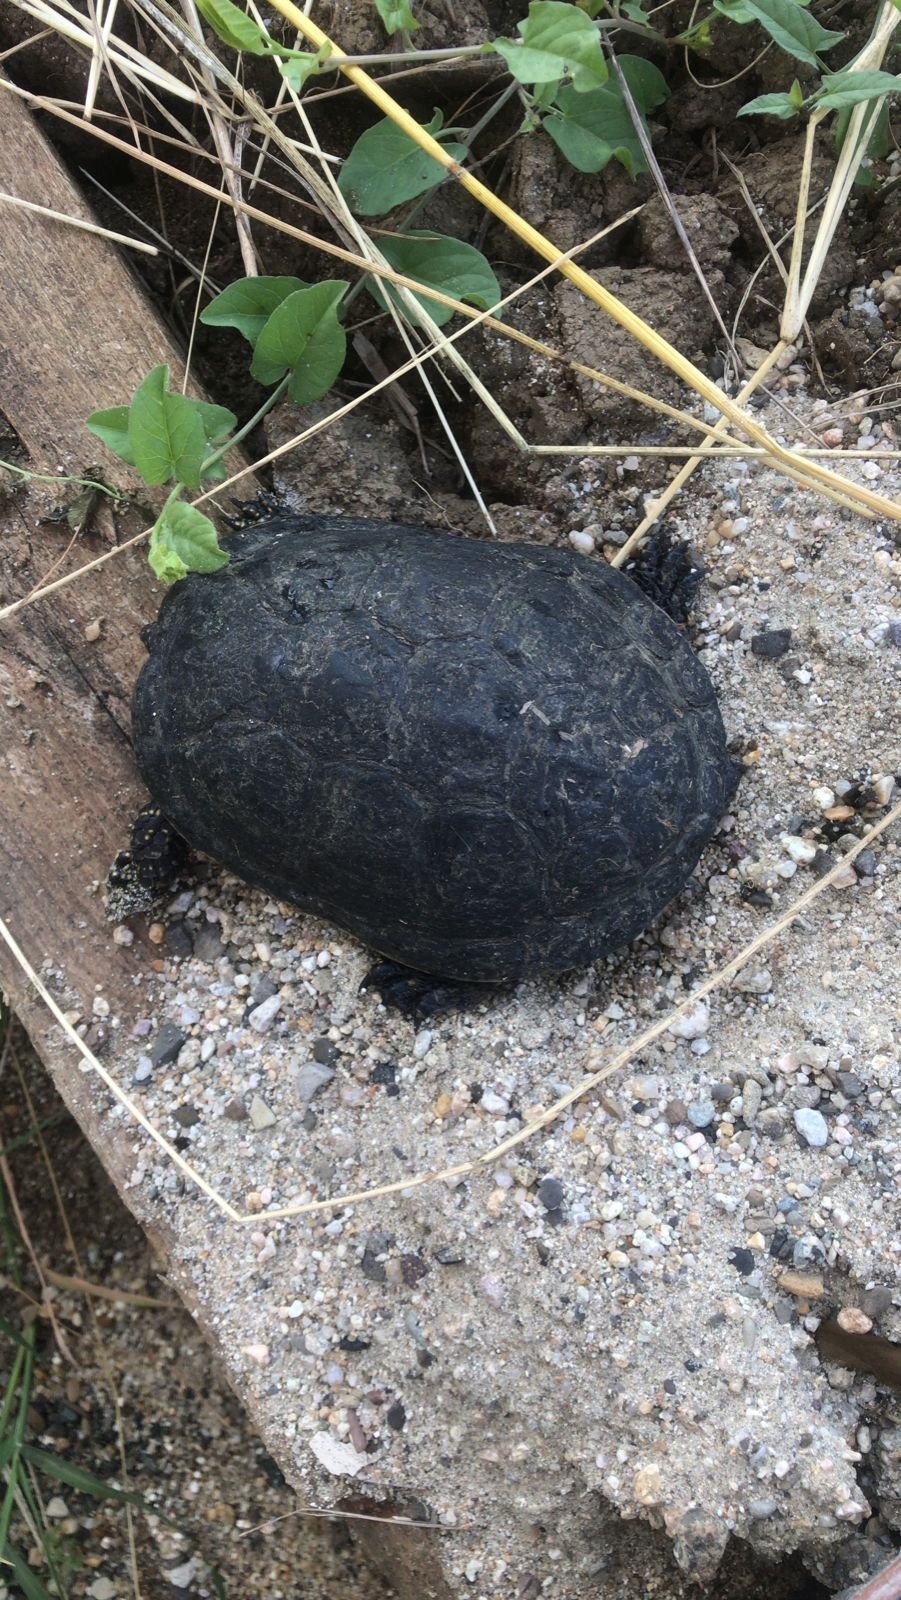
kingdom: Animalia
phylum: Chordata
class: Testudines
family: Emydidae
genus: Emys
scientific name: Emys orbicularis
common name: European pond turtle
